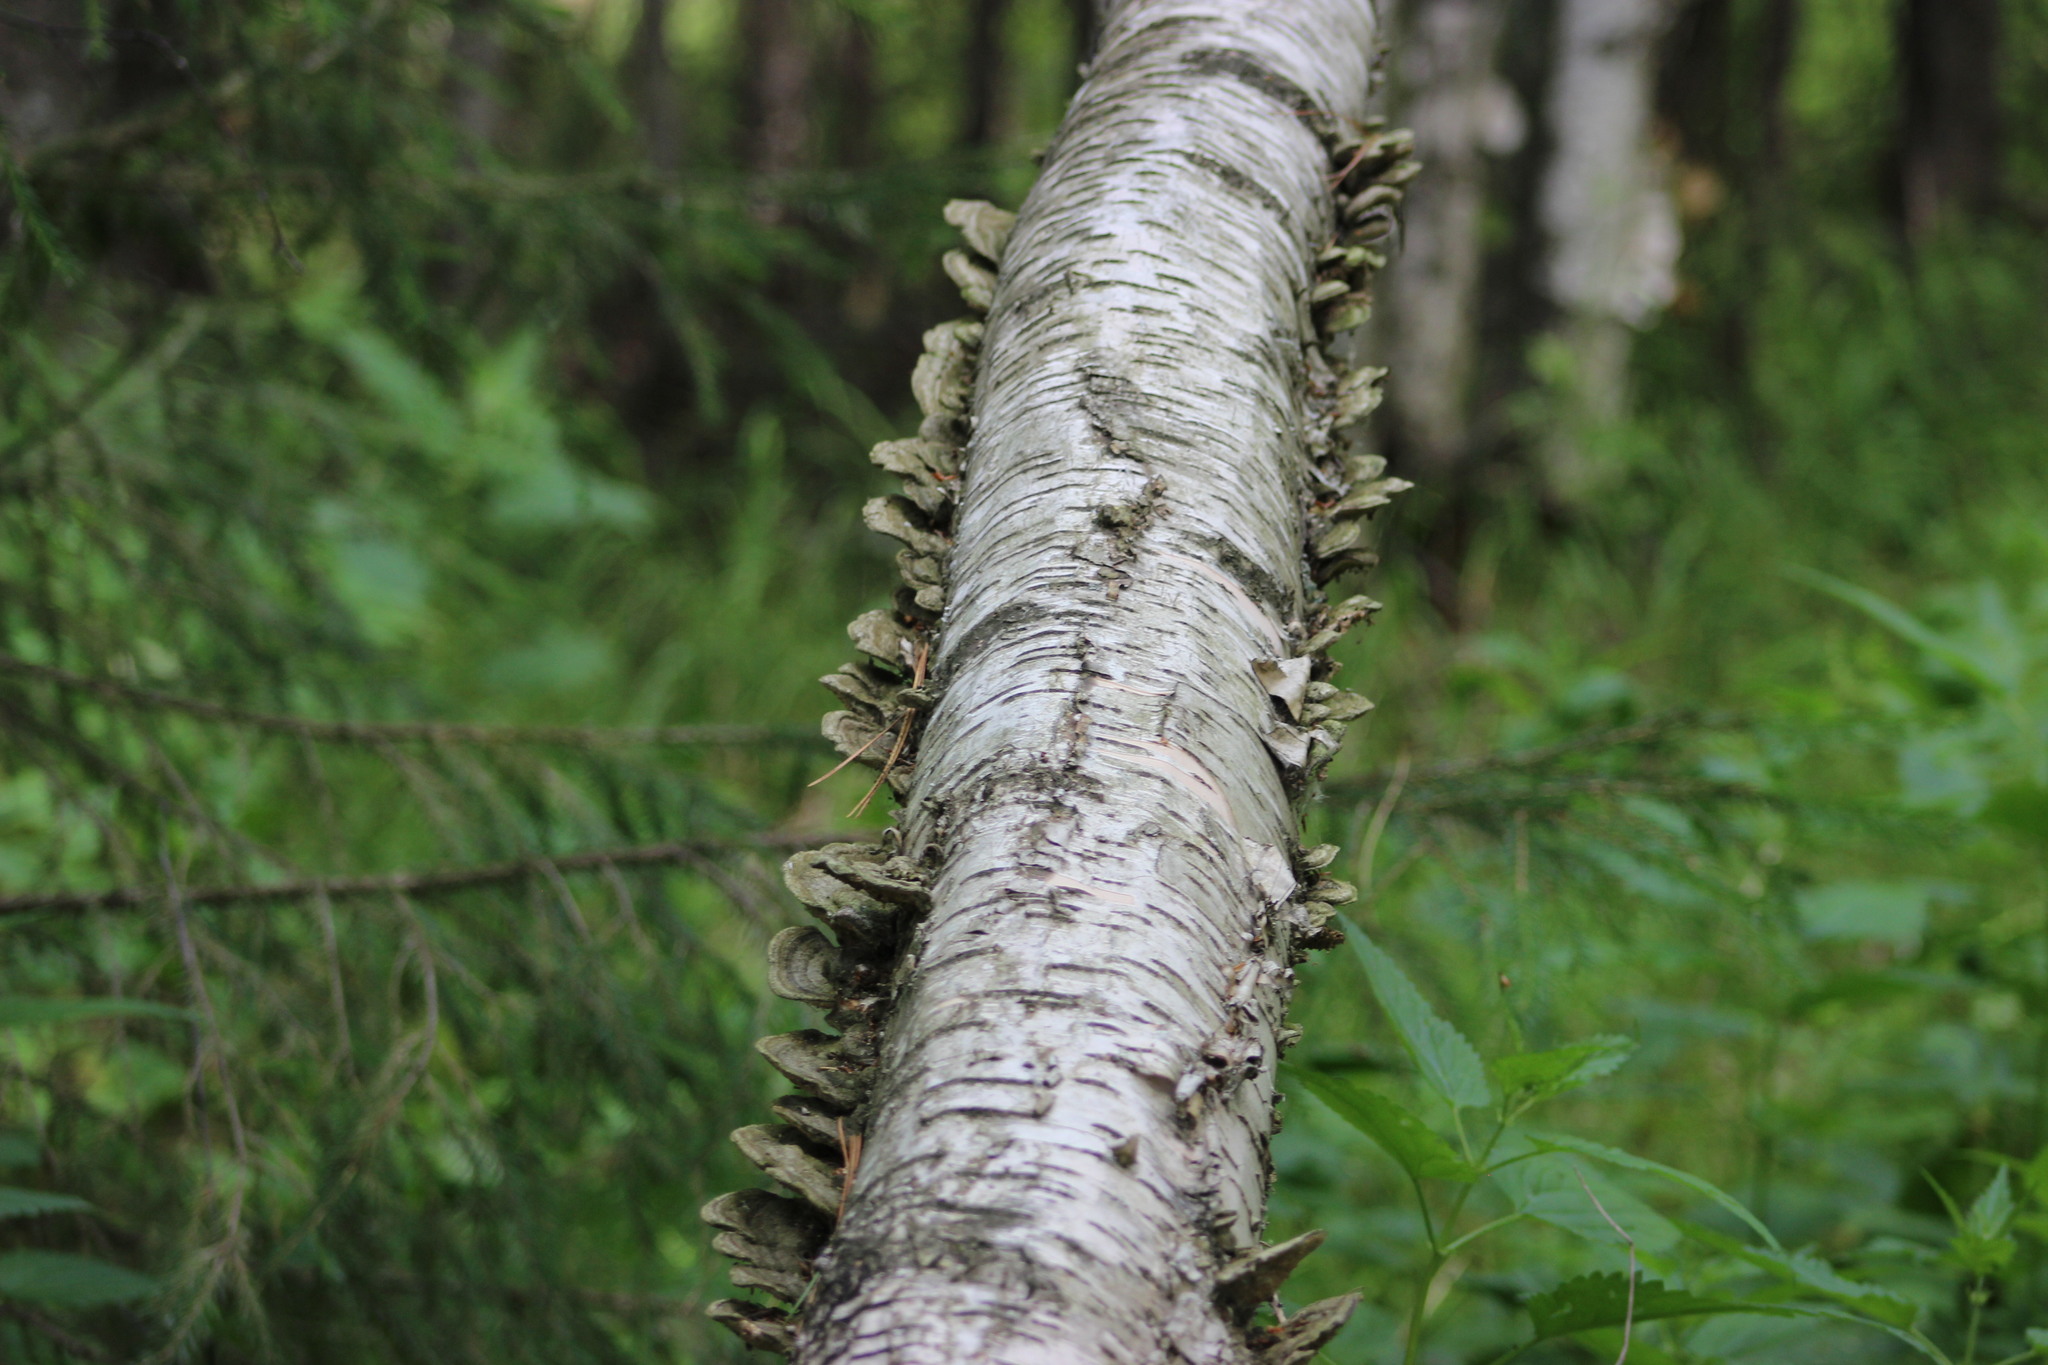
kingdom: Fungi
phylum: Basidiomycota
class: Agaricomycetes
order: Polyporales
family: Cerrenaceae
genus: Cerrena
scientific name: Cerrena unicolor
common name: Mossy maze polypore
